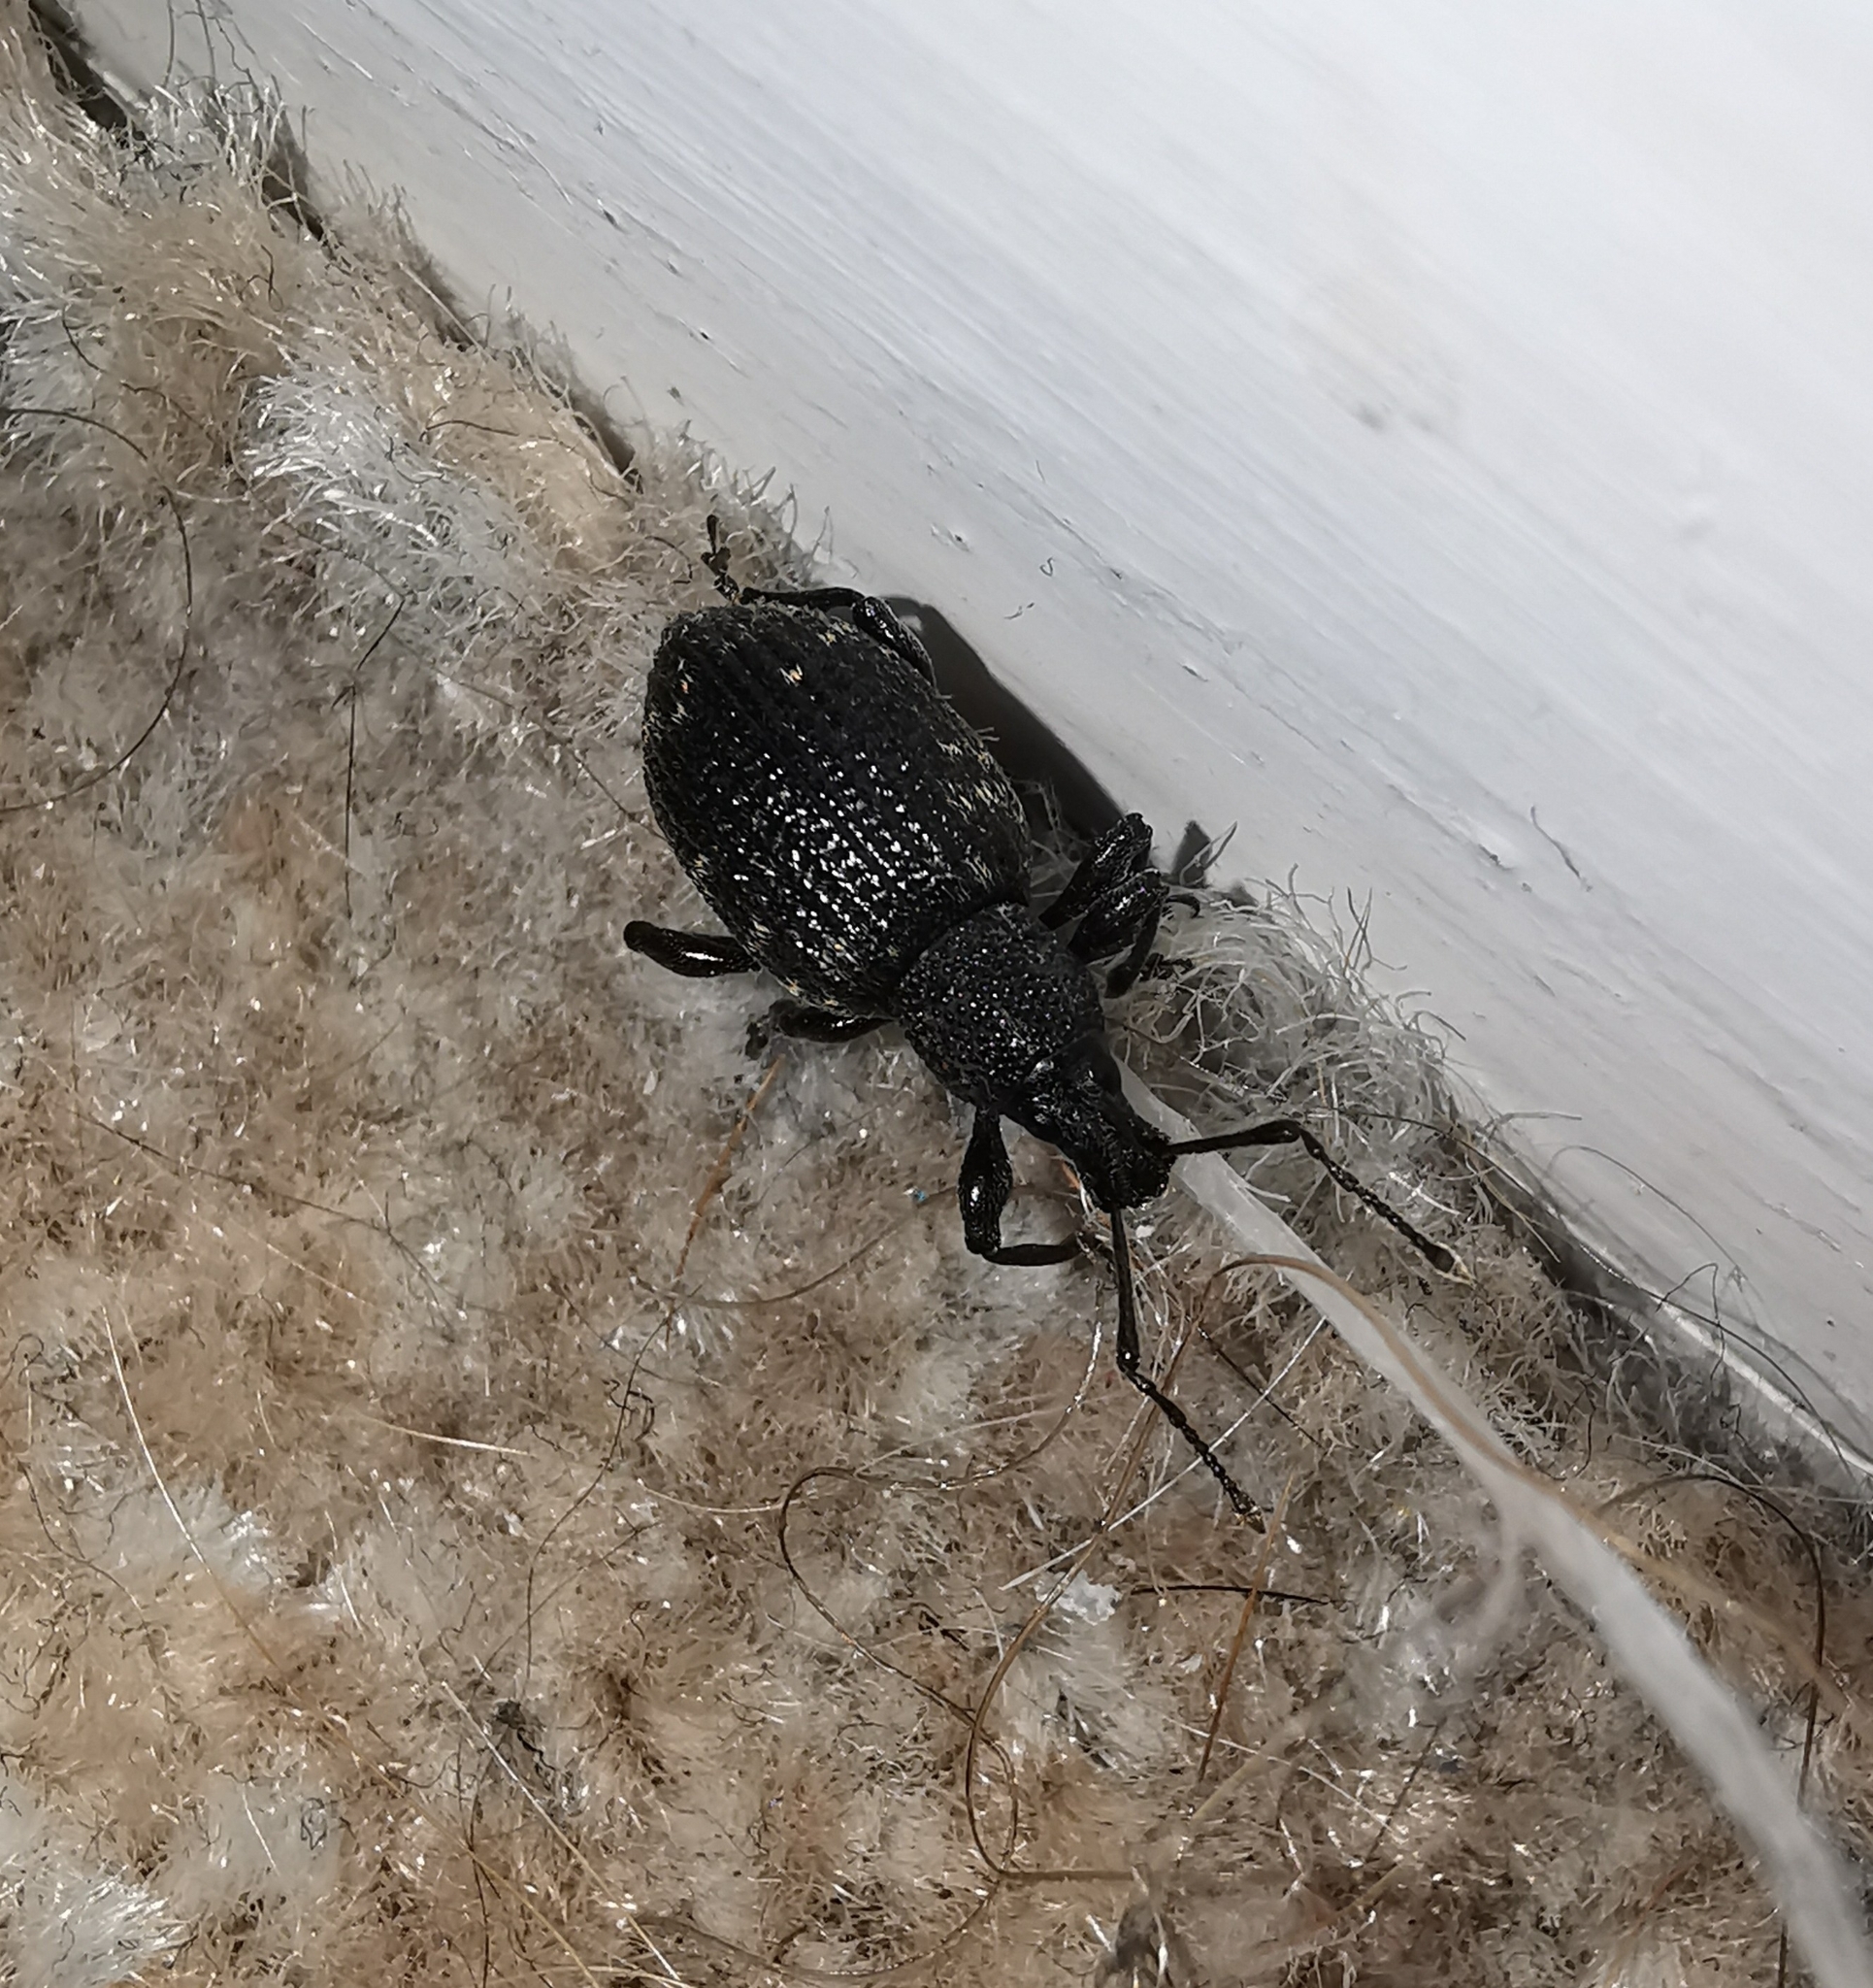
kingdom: Animalia
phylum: Arthropoda
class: Insecta
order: Coleoptera
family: Curculionidae
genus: Otiorhynchus
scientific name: Otiorhynchus sulcatus
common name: Black vine weevil
